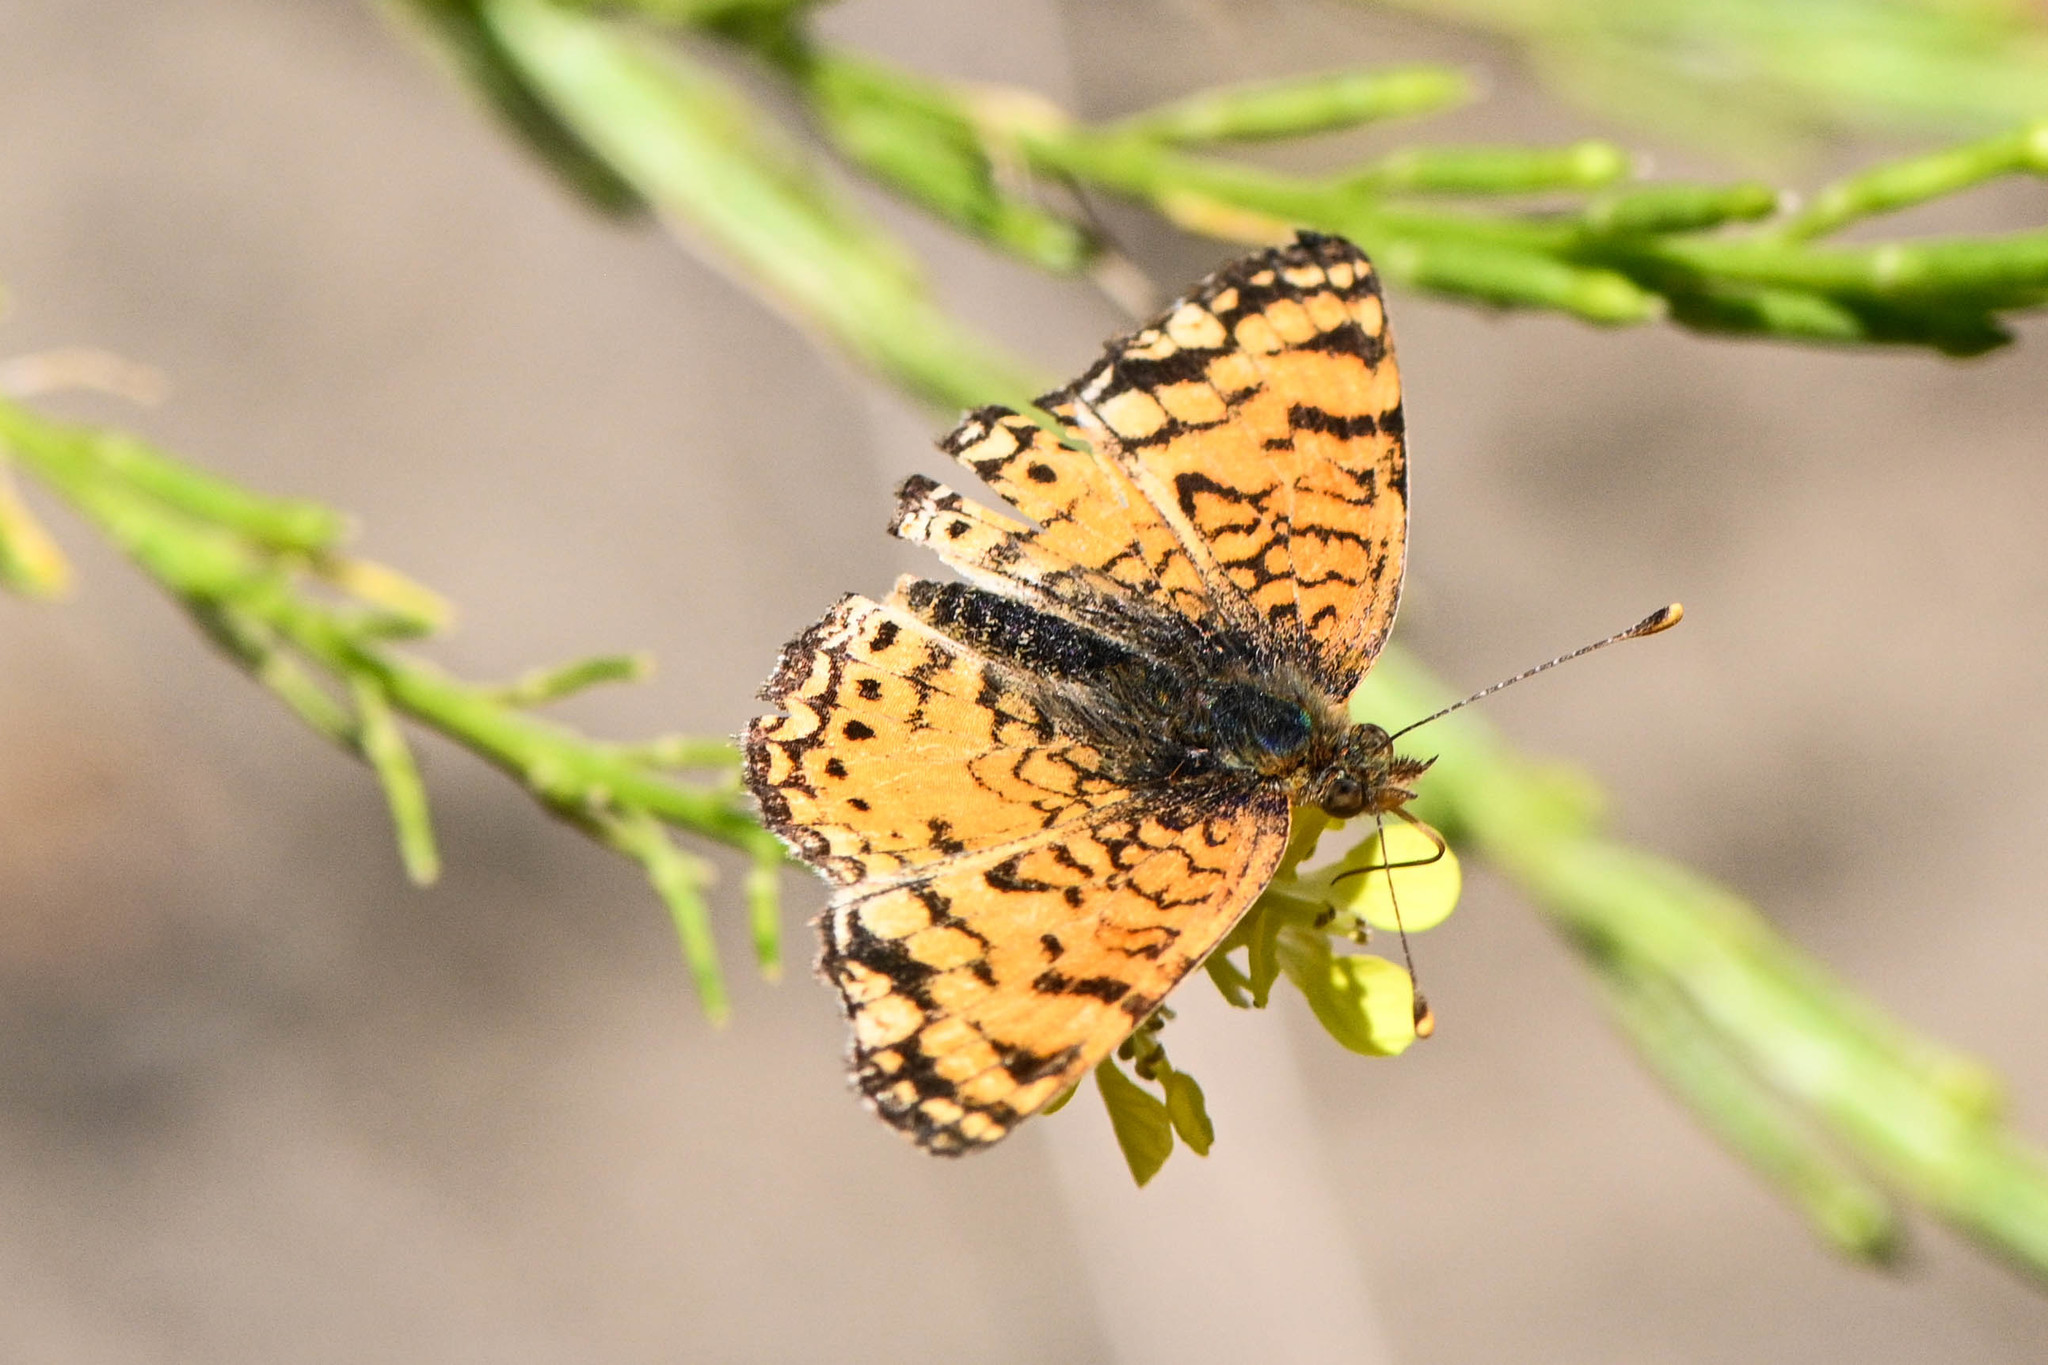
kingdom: Animalia
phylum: Arthropoda
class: Insecta
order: Lepidoptera
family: Nymphalidae
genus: Eresia
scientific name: Eresia aveyrona
